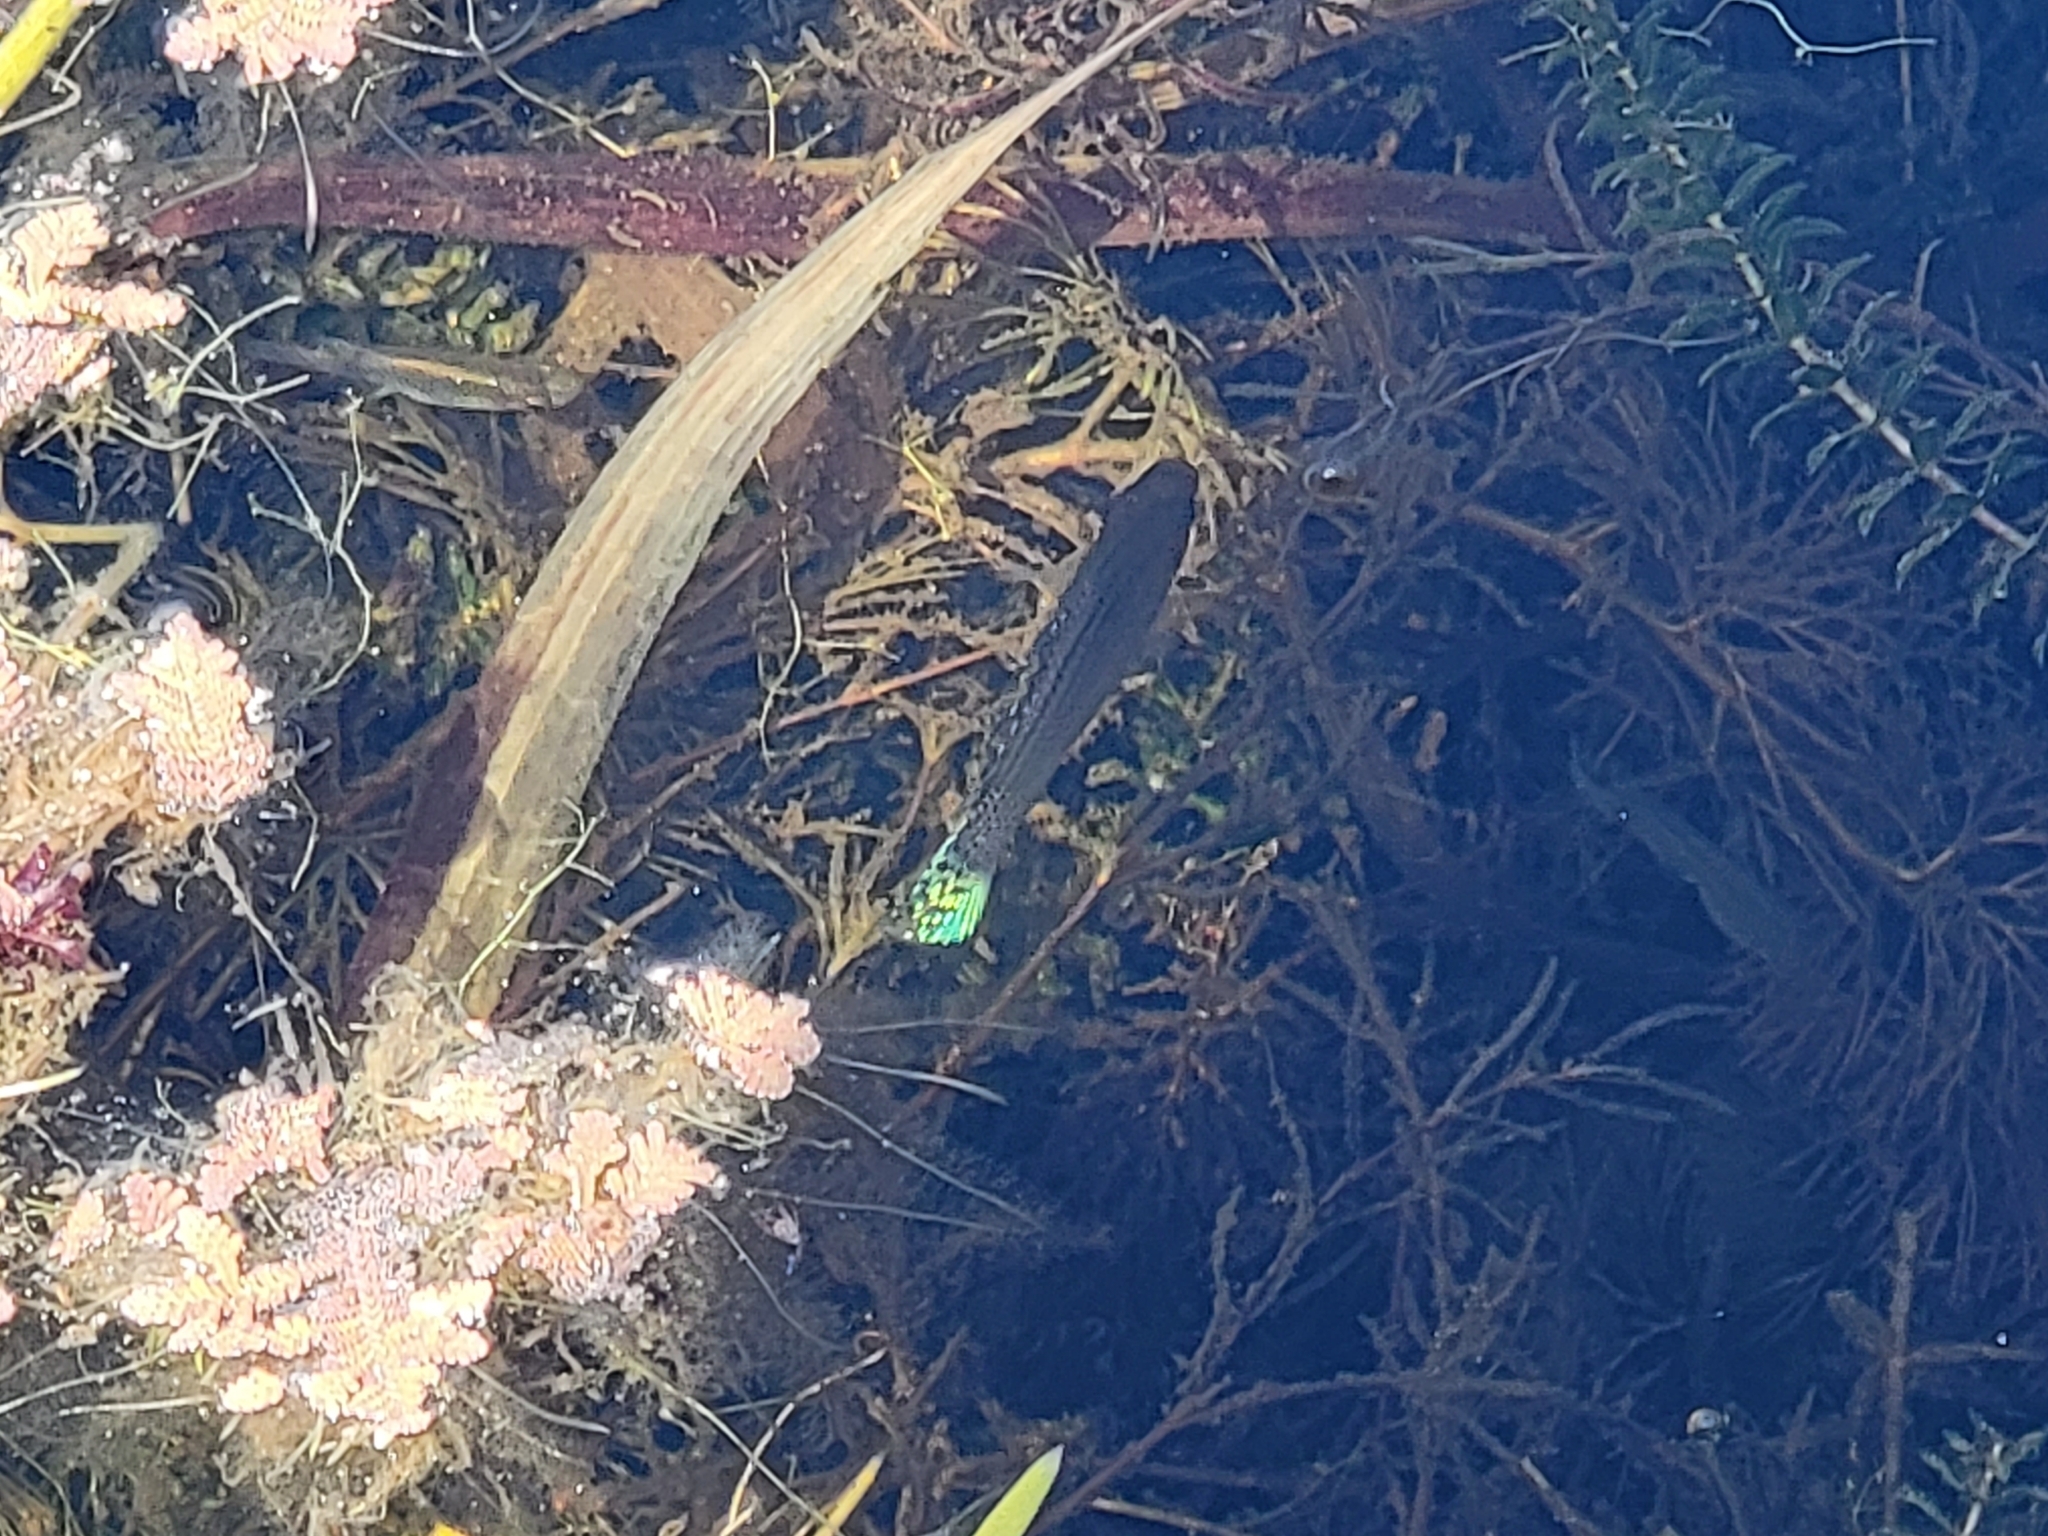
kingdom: Animalia
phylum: Chordata
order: Cyprinodontiformes
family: Poeciliidae
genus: Poecilia
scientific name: Poecilia latipinna
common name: Sailfin molly
